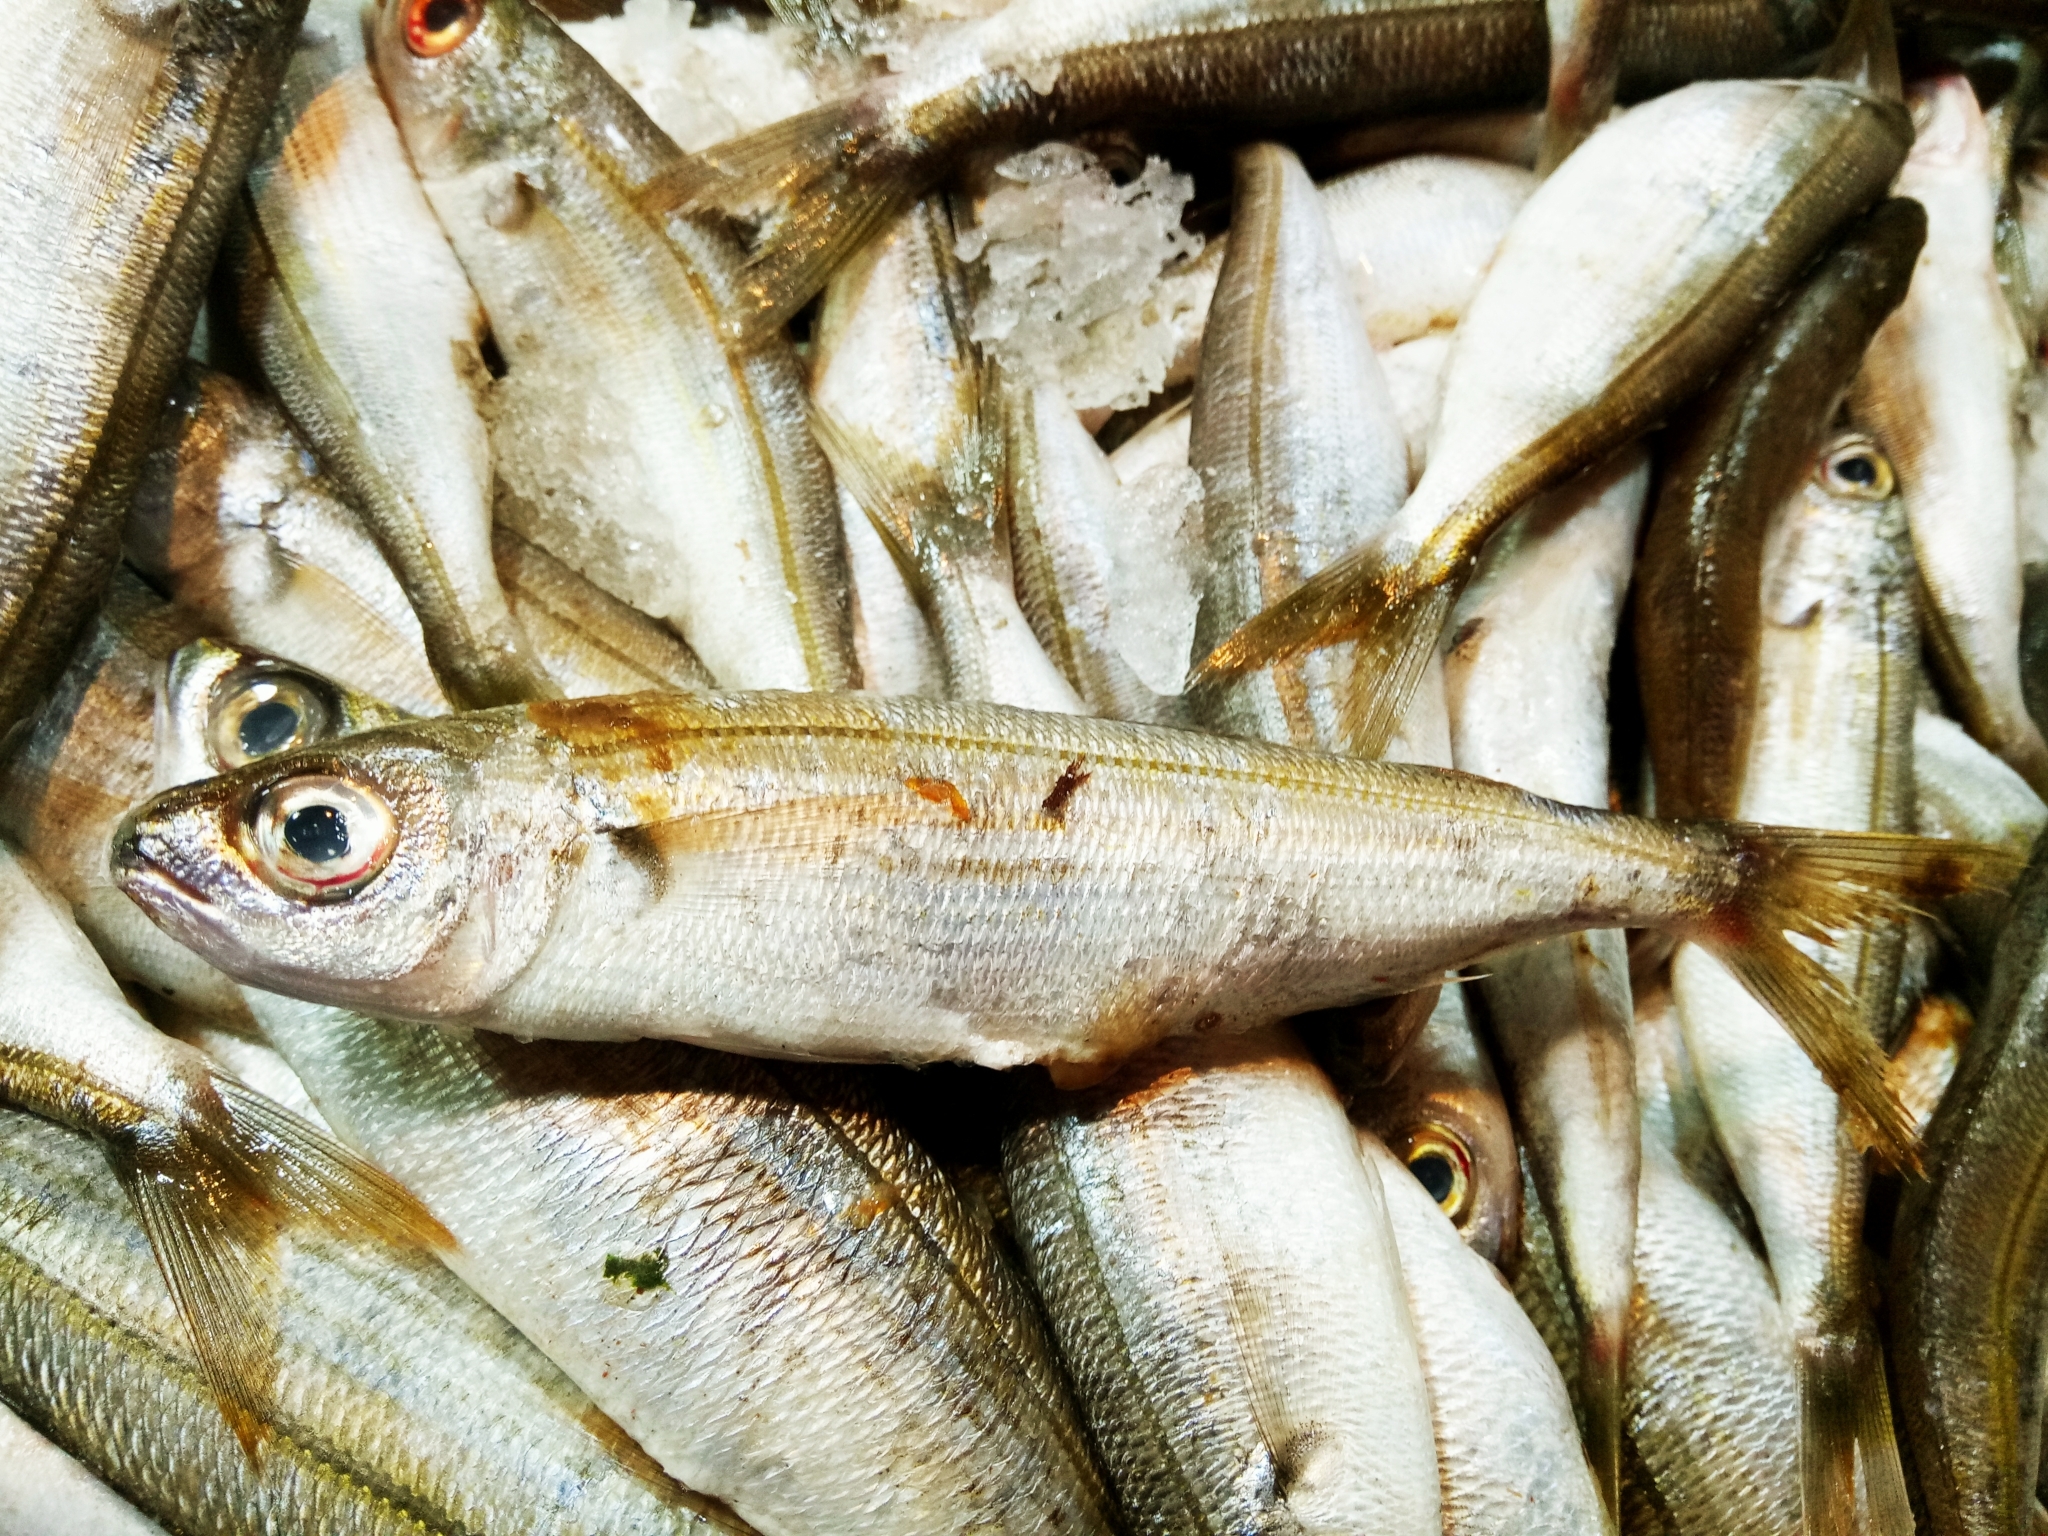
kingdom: Animalia
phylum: Chordata
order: Perciformes
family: Sparidae
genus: Boops
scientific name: Boops boops
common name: Bogue
